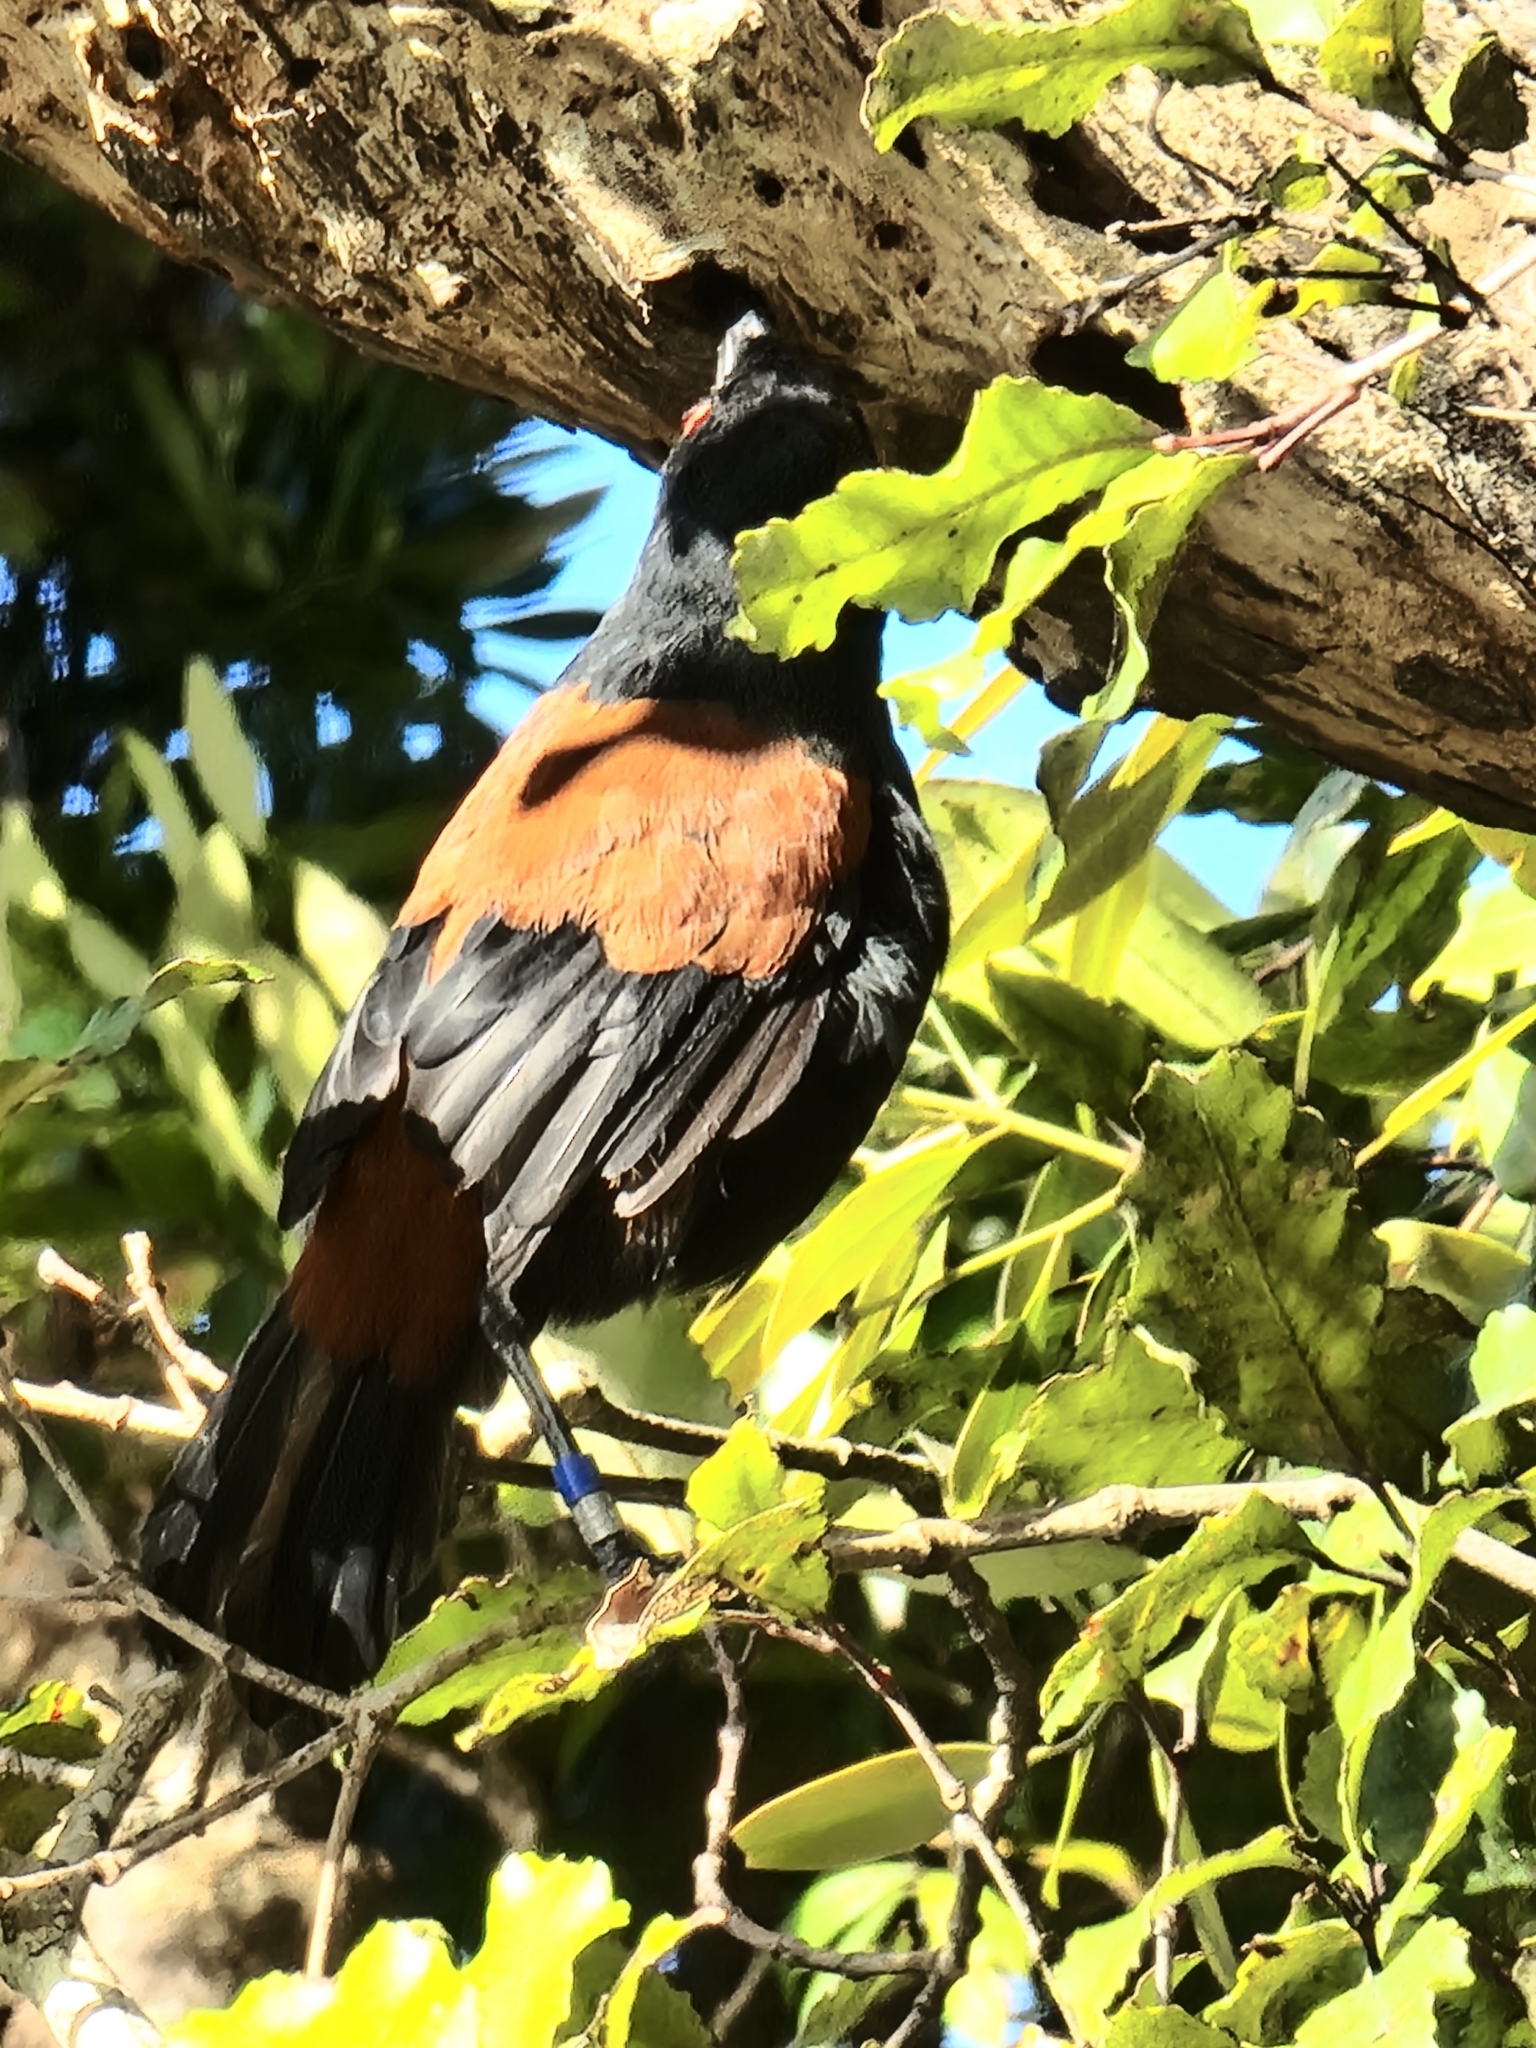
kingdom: Animalia
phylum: Chordata
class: Aves
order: Passeriformes
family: Callaeatidae
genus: Philesturnus
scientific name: Philesturnus carunculatus
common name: South island saddleback
